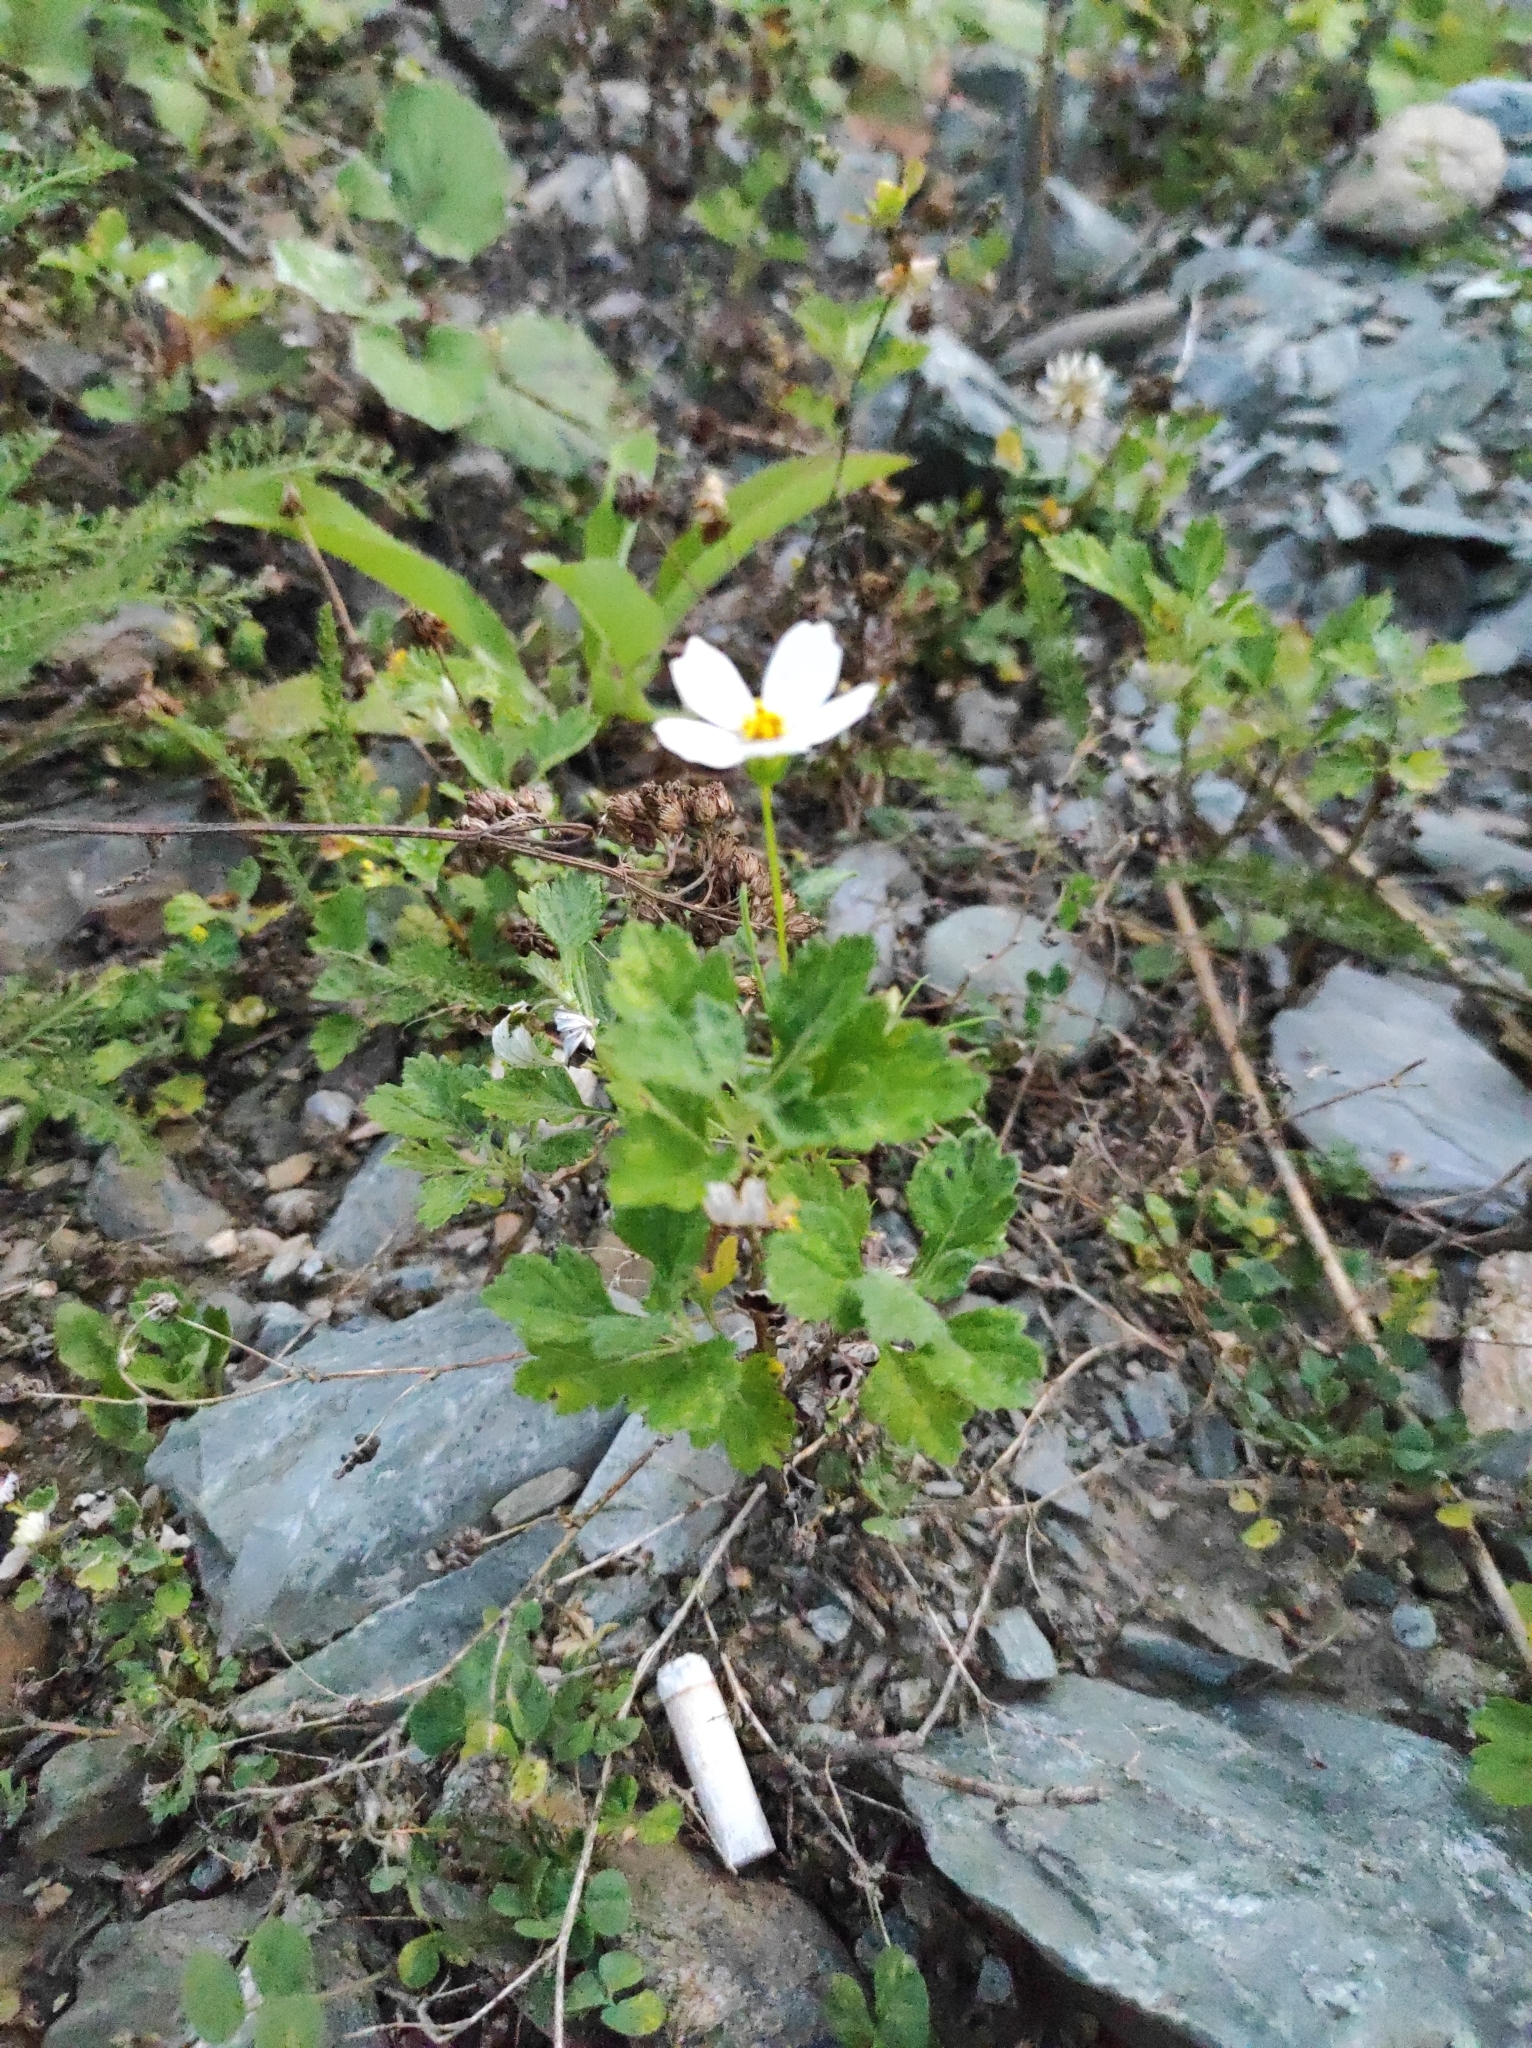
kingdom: Plantae
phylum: Tracheophyta
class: Magnoliopsida
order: Asterales
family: Asteraceae
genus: Cosmos
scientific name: Cosmos bipinnatus
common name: Garden cosmos
